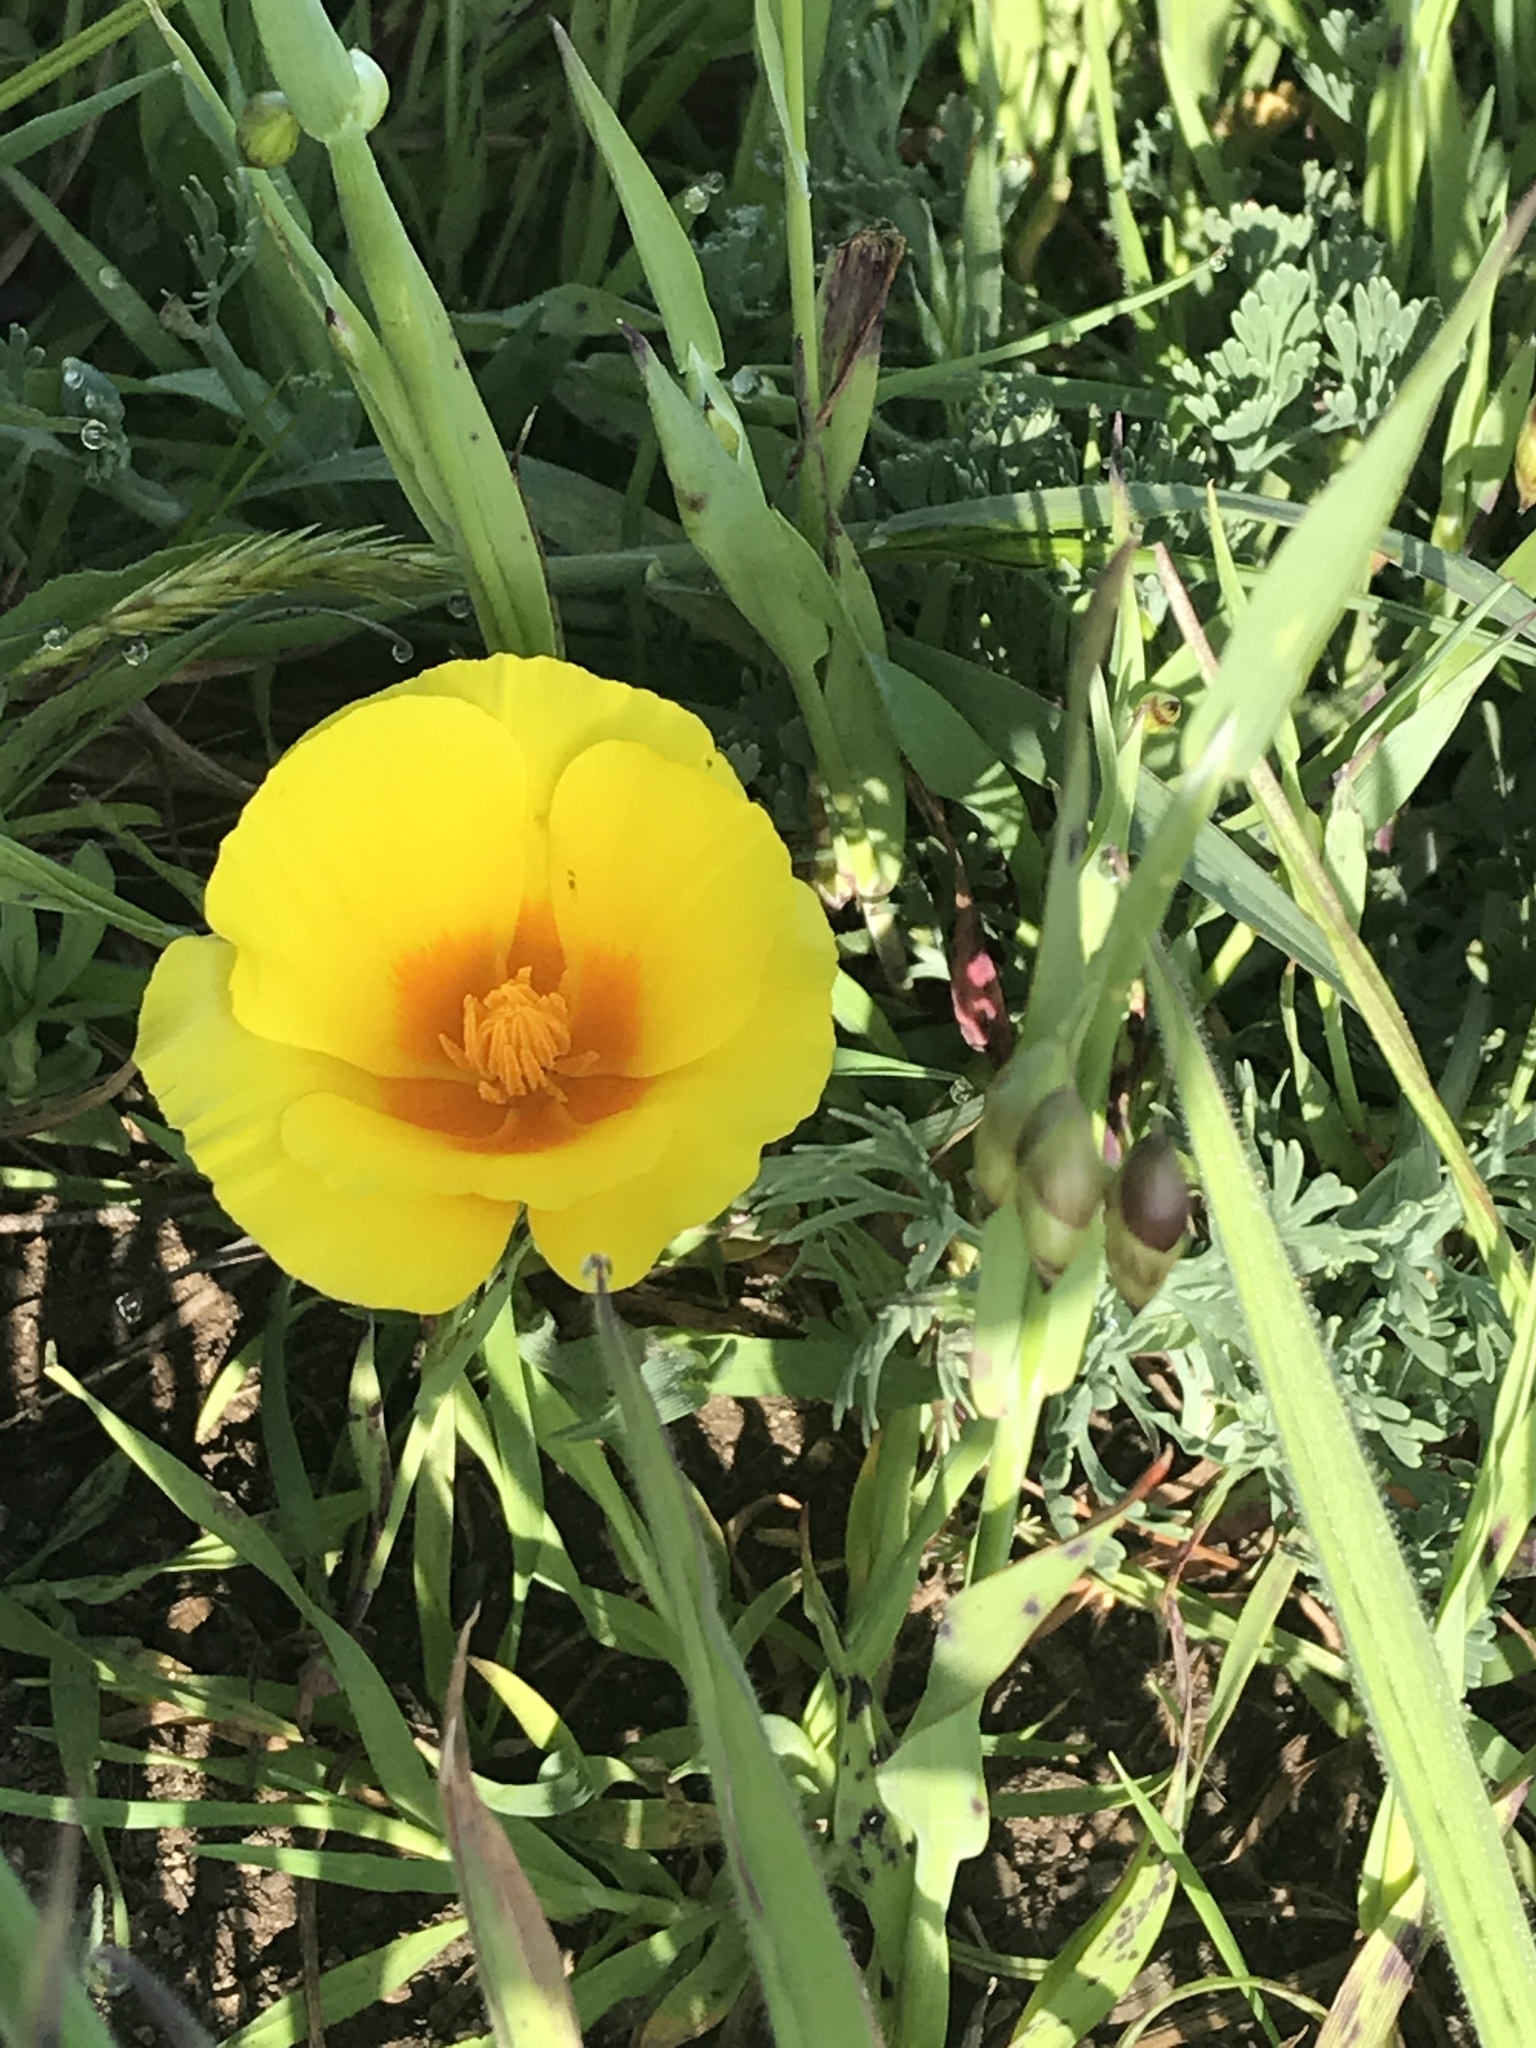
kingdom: Plantae
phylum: Tracheophyta
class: Magnoliopsida
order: Ranunculales
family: Papaveraceae
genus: Eschscholzia
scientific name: Eschscholzia californica
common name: California poppy
